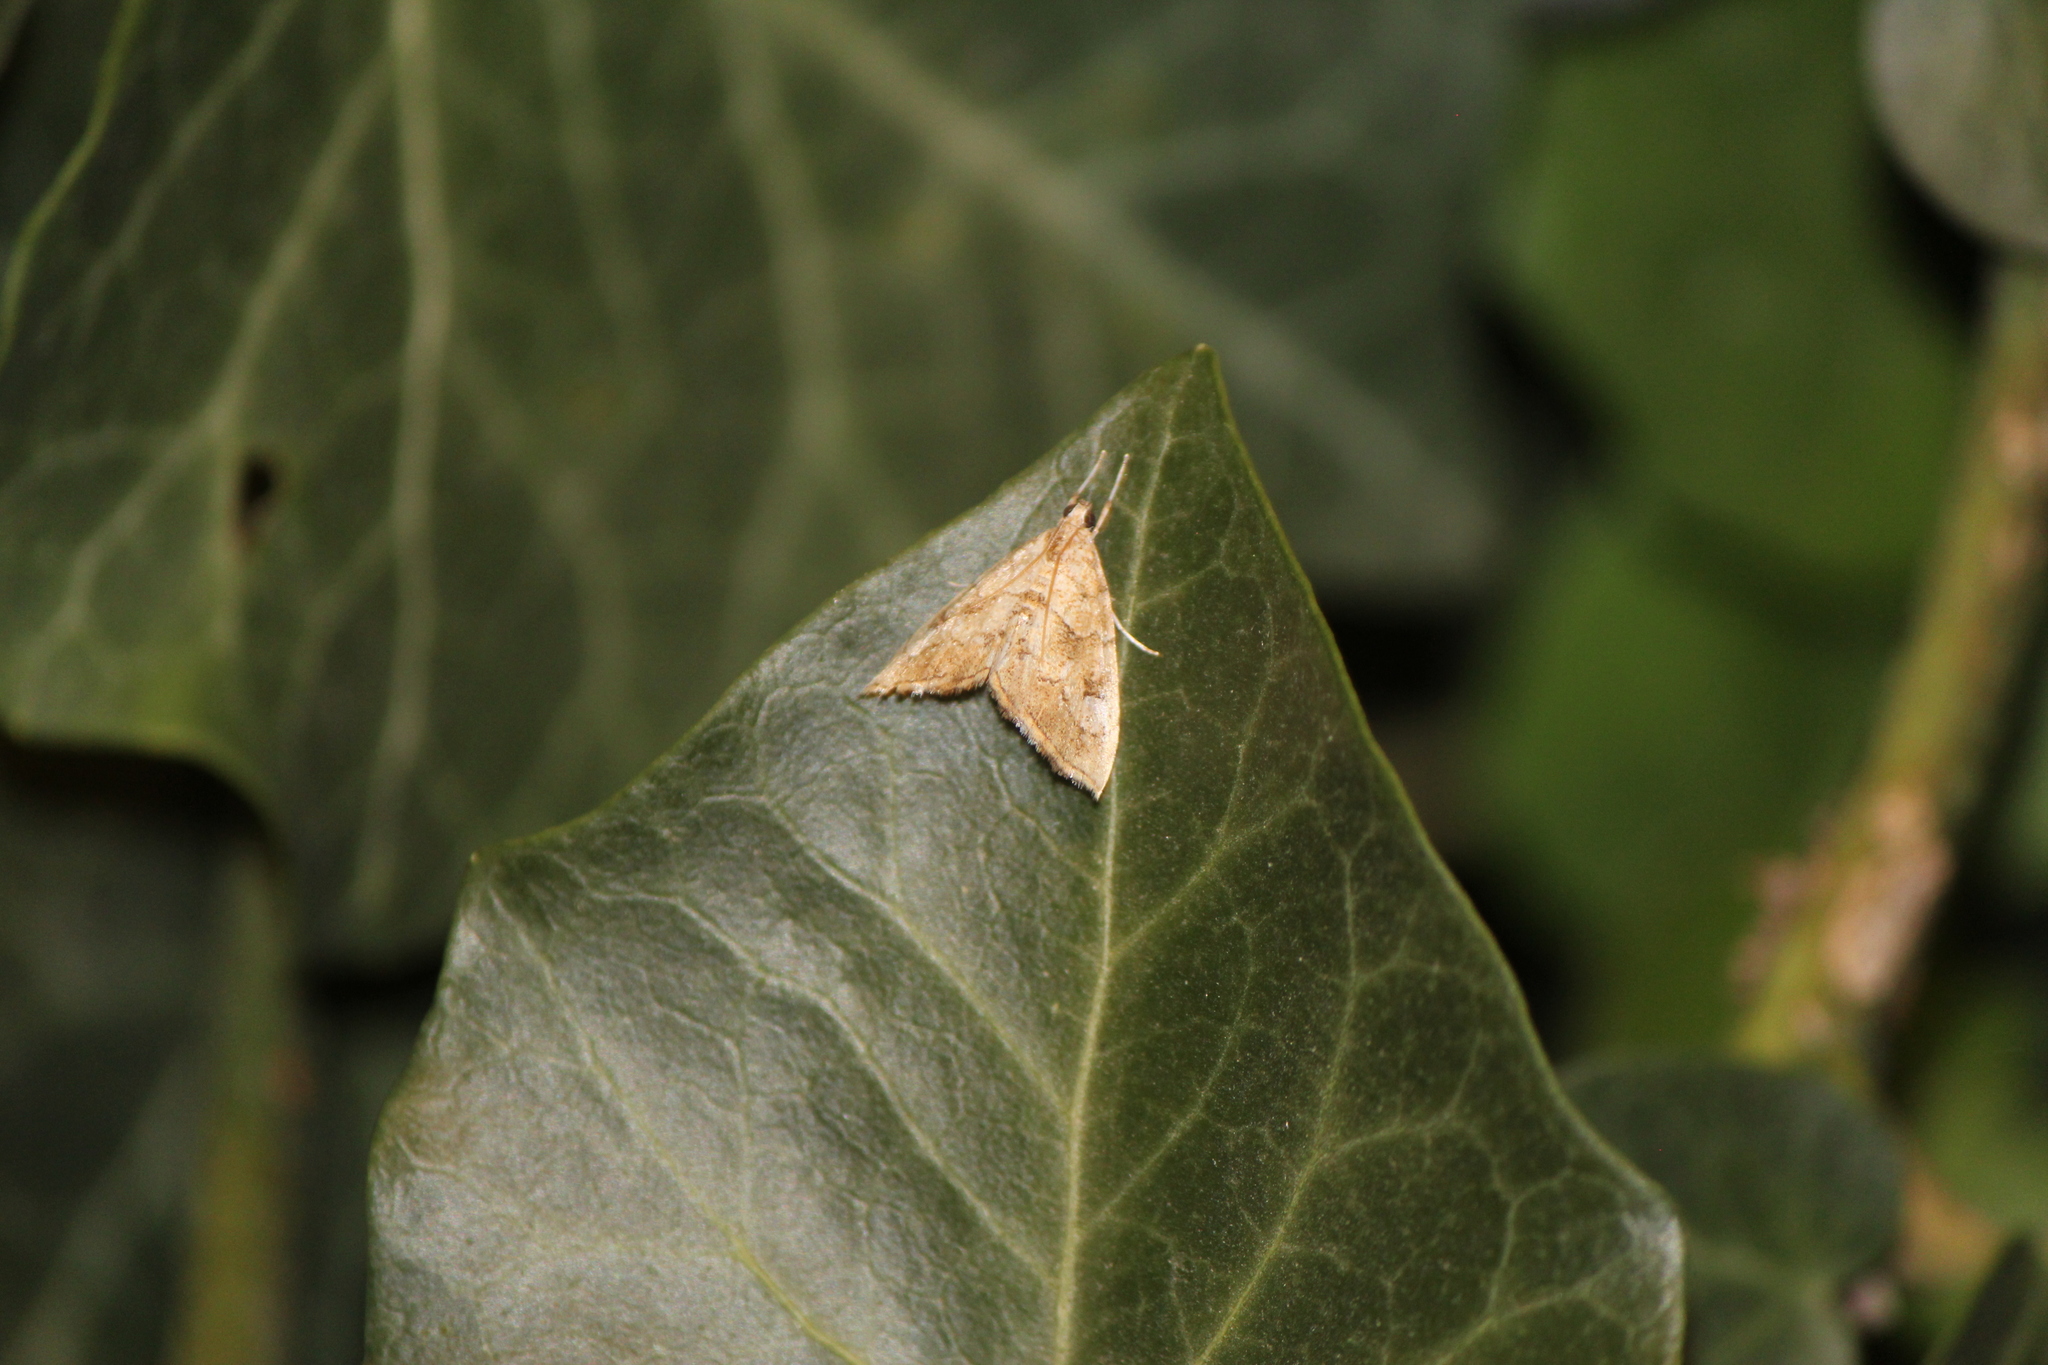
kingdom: Animalia
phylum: Arthropoda
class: Insecta
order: Lepidoptera
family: Crambidae
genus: Scybalistodes
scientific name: Scybalistodes periculosalis
